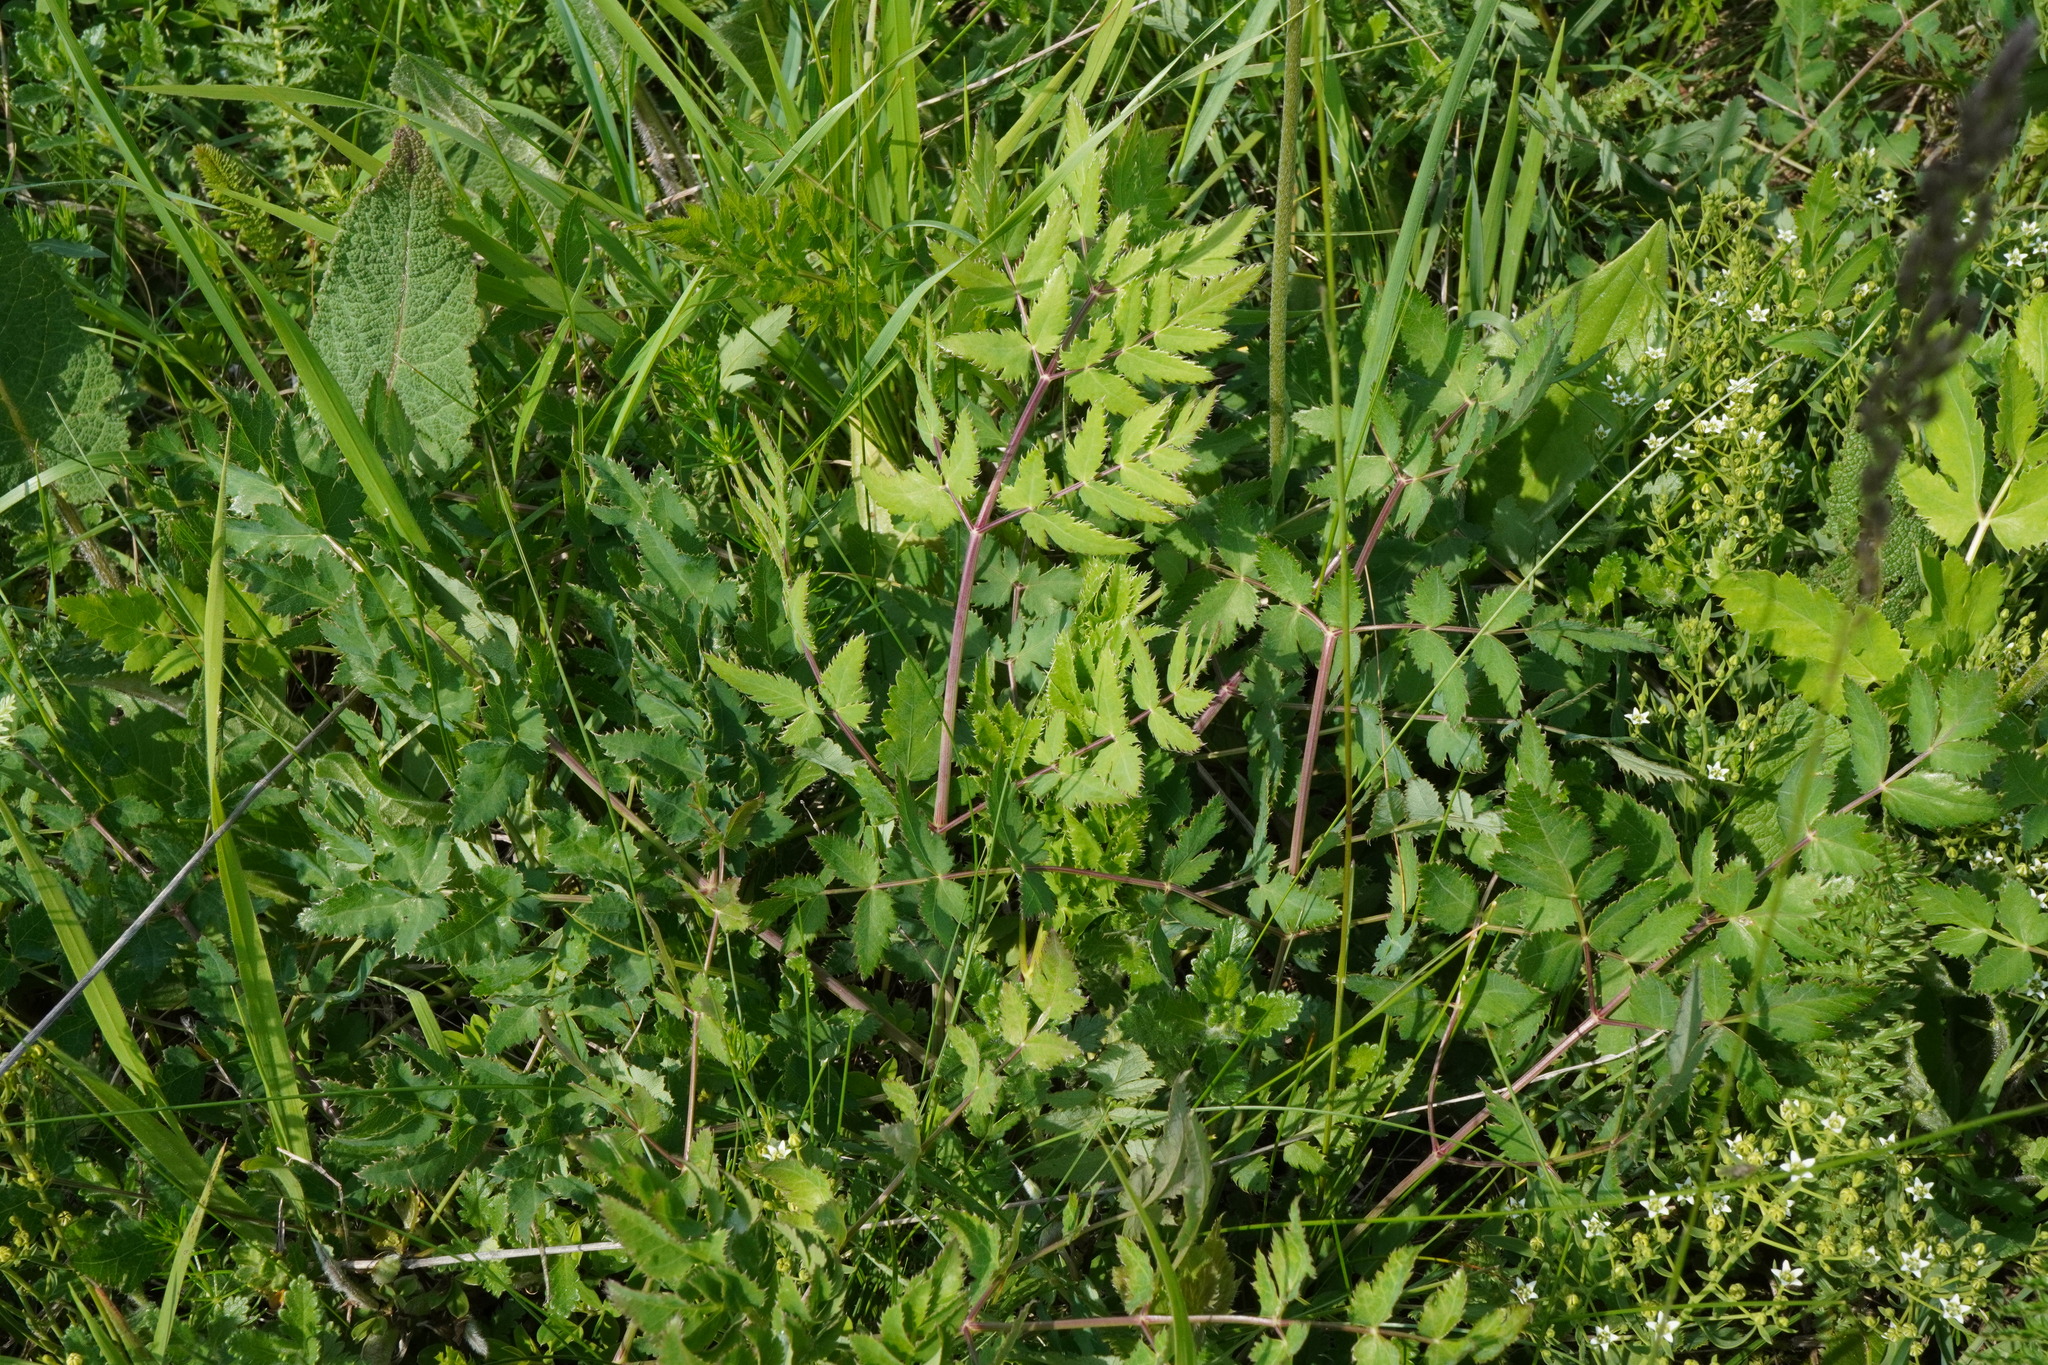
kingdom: Plantae
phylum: Tracheophyta
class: Magnoliopsida
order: Apiales
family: Apiaceae
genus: Cervaria
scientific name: Cervaria rivini
